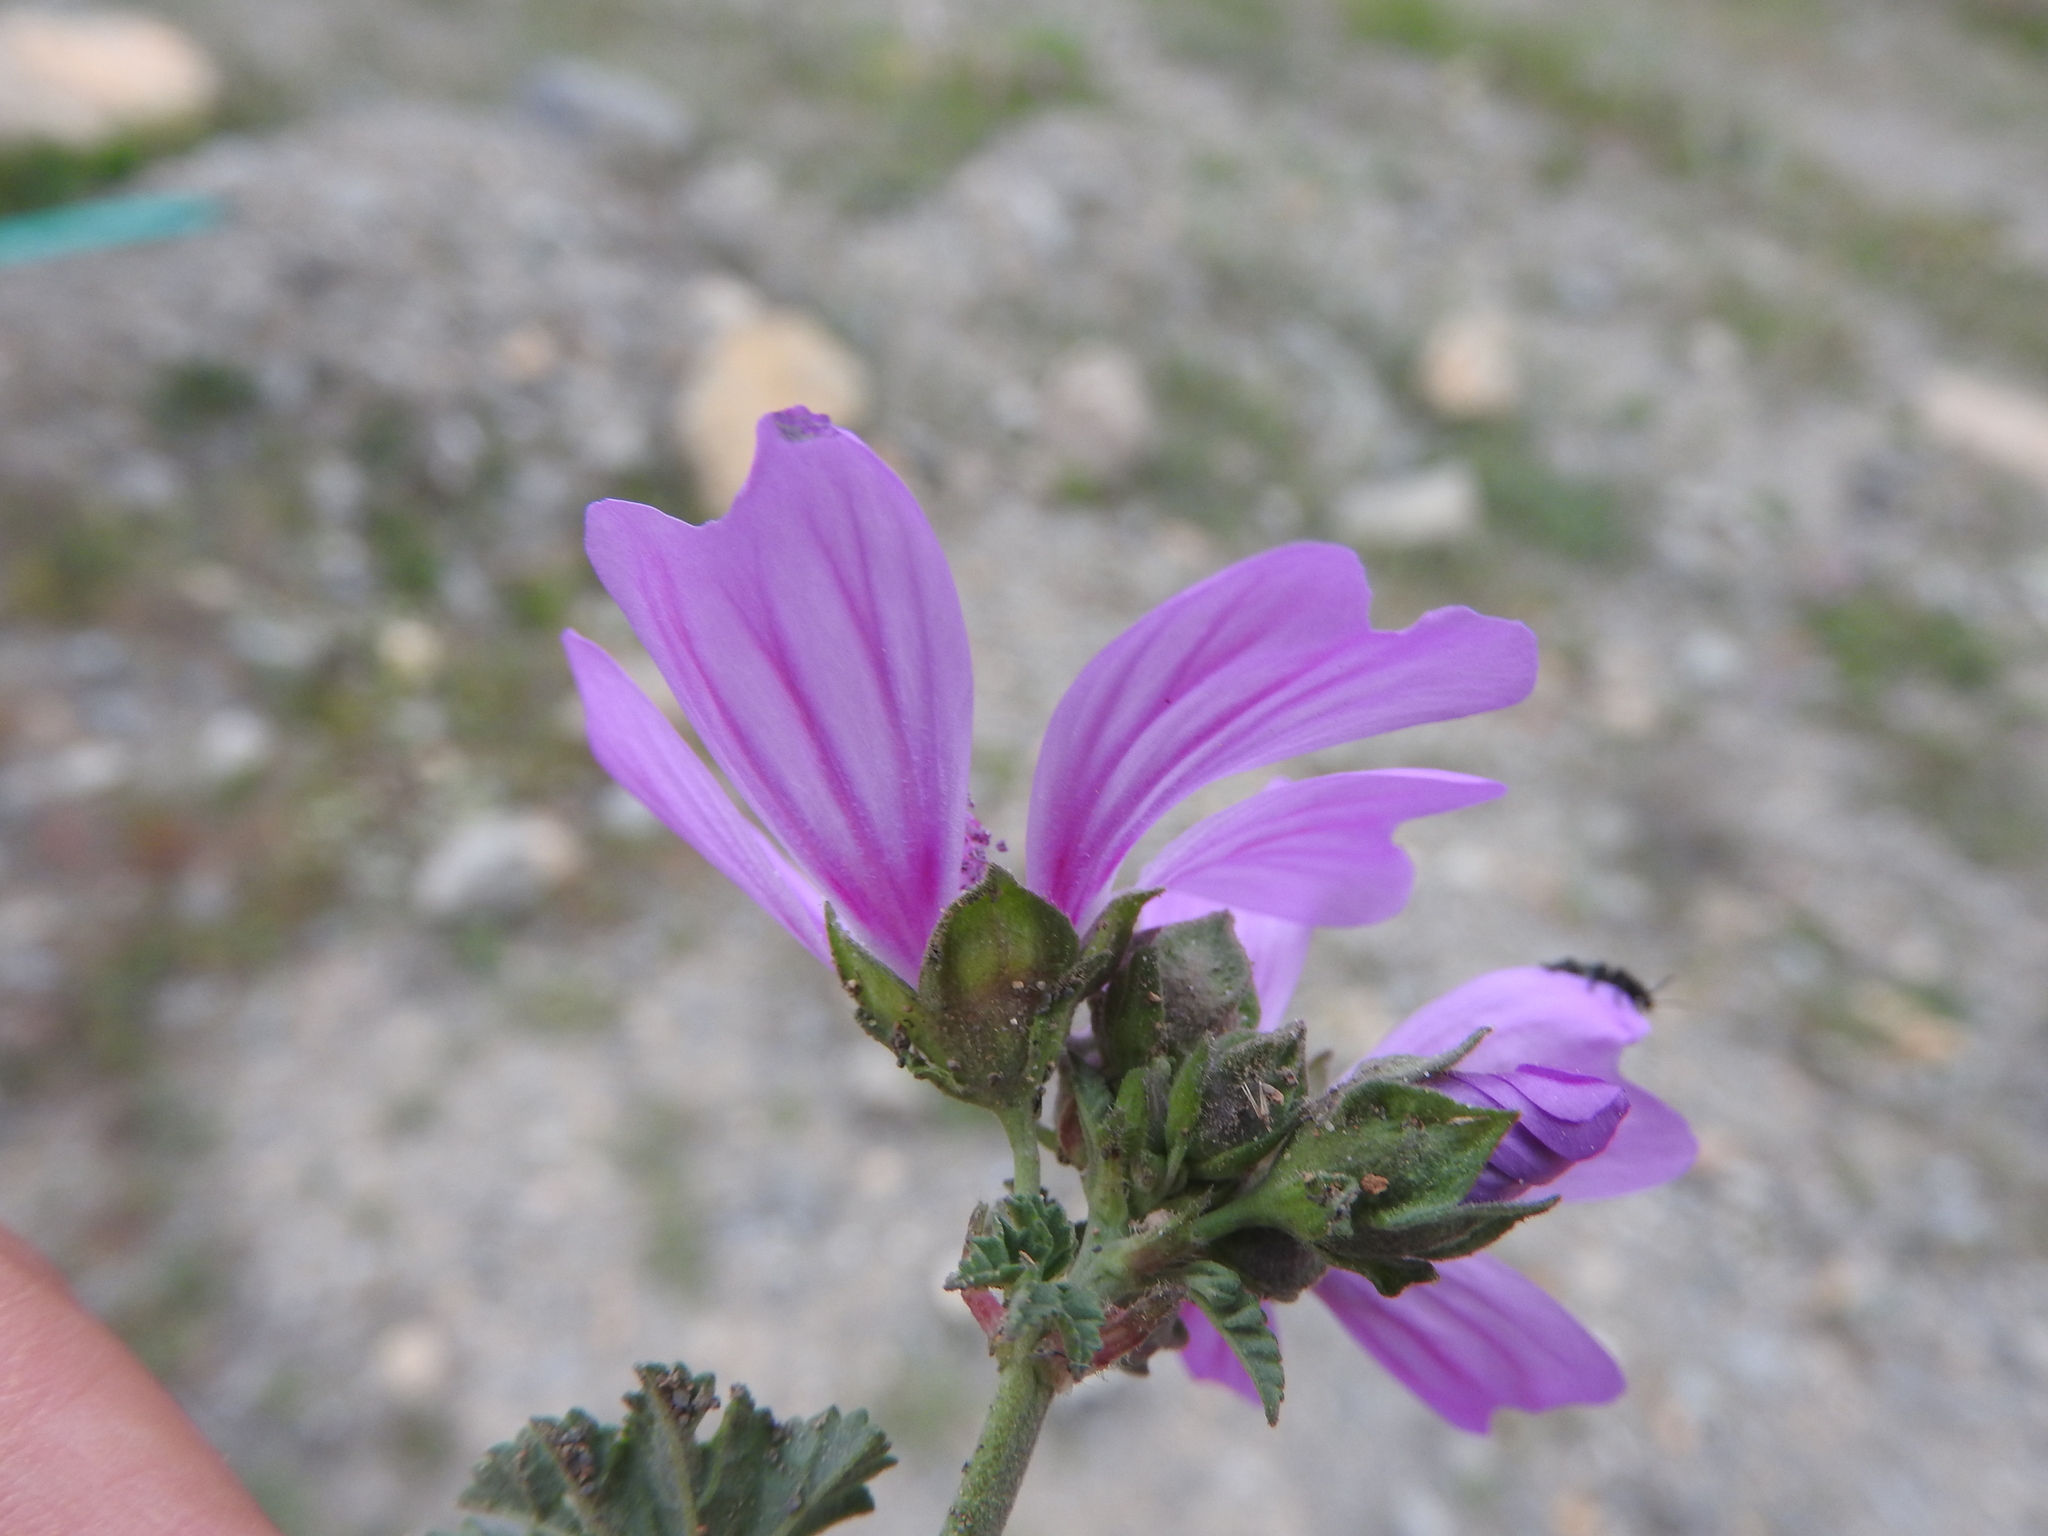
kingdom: Plantae
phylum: Tracheophyta
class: Magnoliopsida
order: Malvales
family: Malvaceae
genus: Malva
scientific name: Malva sylvestris
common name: Common mallow
